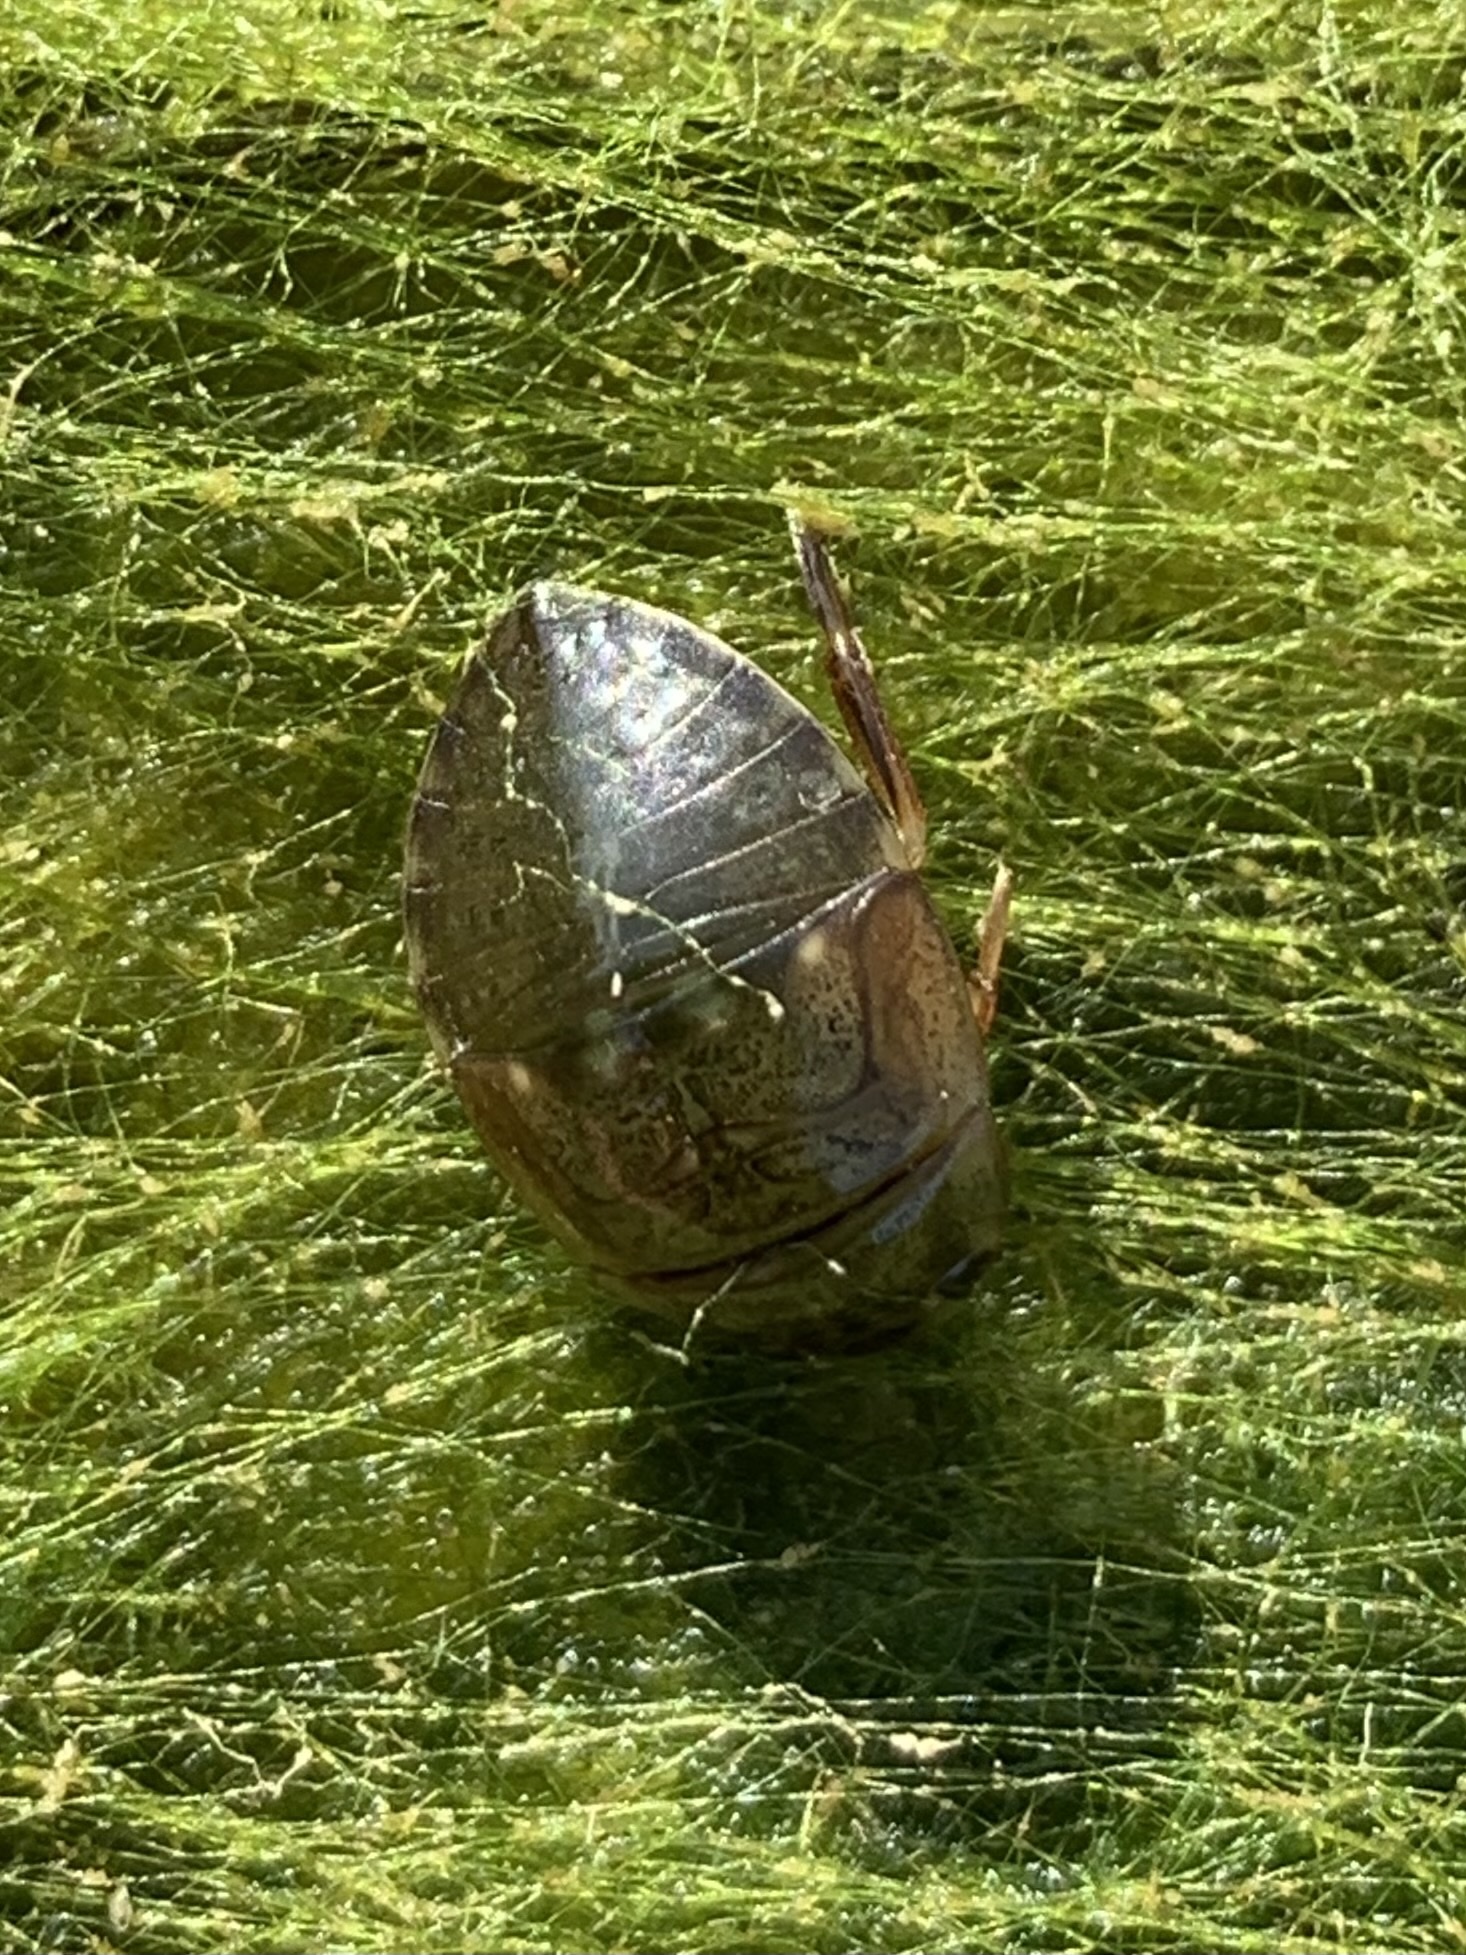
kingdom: Animalia
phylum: Arthropoda
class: Insecta
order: Hemiptera
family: Naucoridae
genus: Ilyocoris
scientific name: Ilyocoris cimicoides
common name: Saucer bugs
